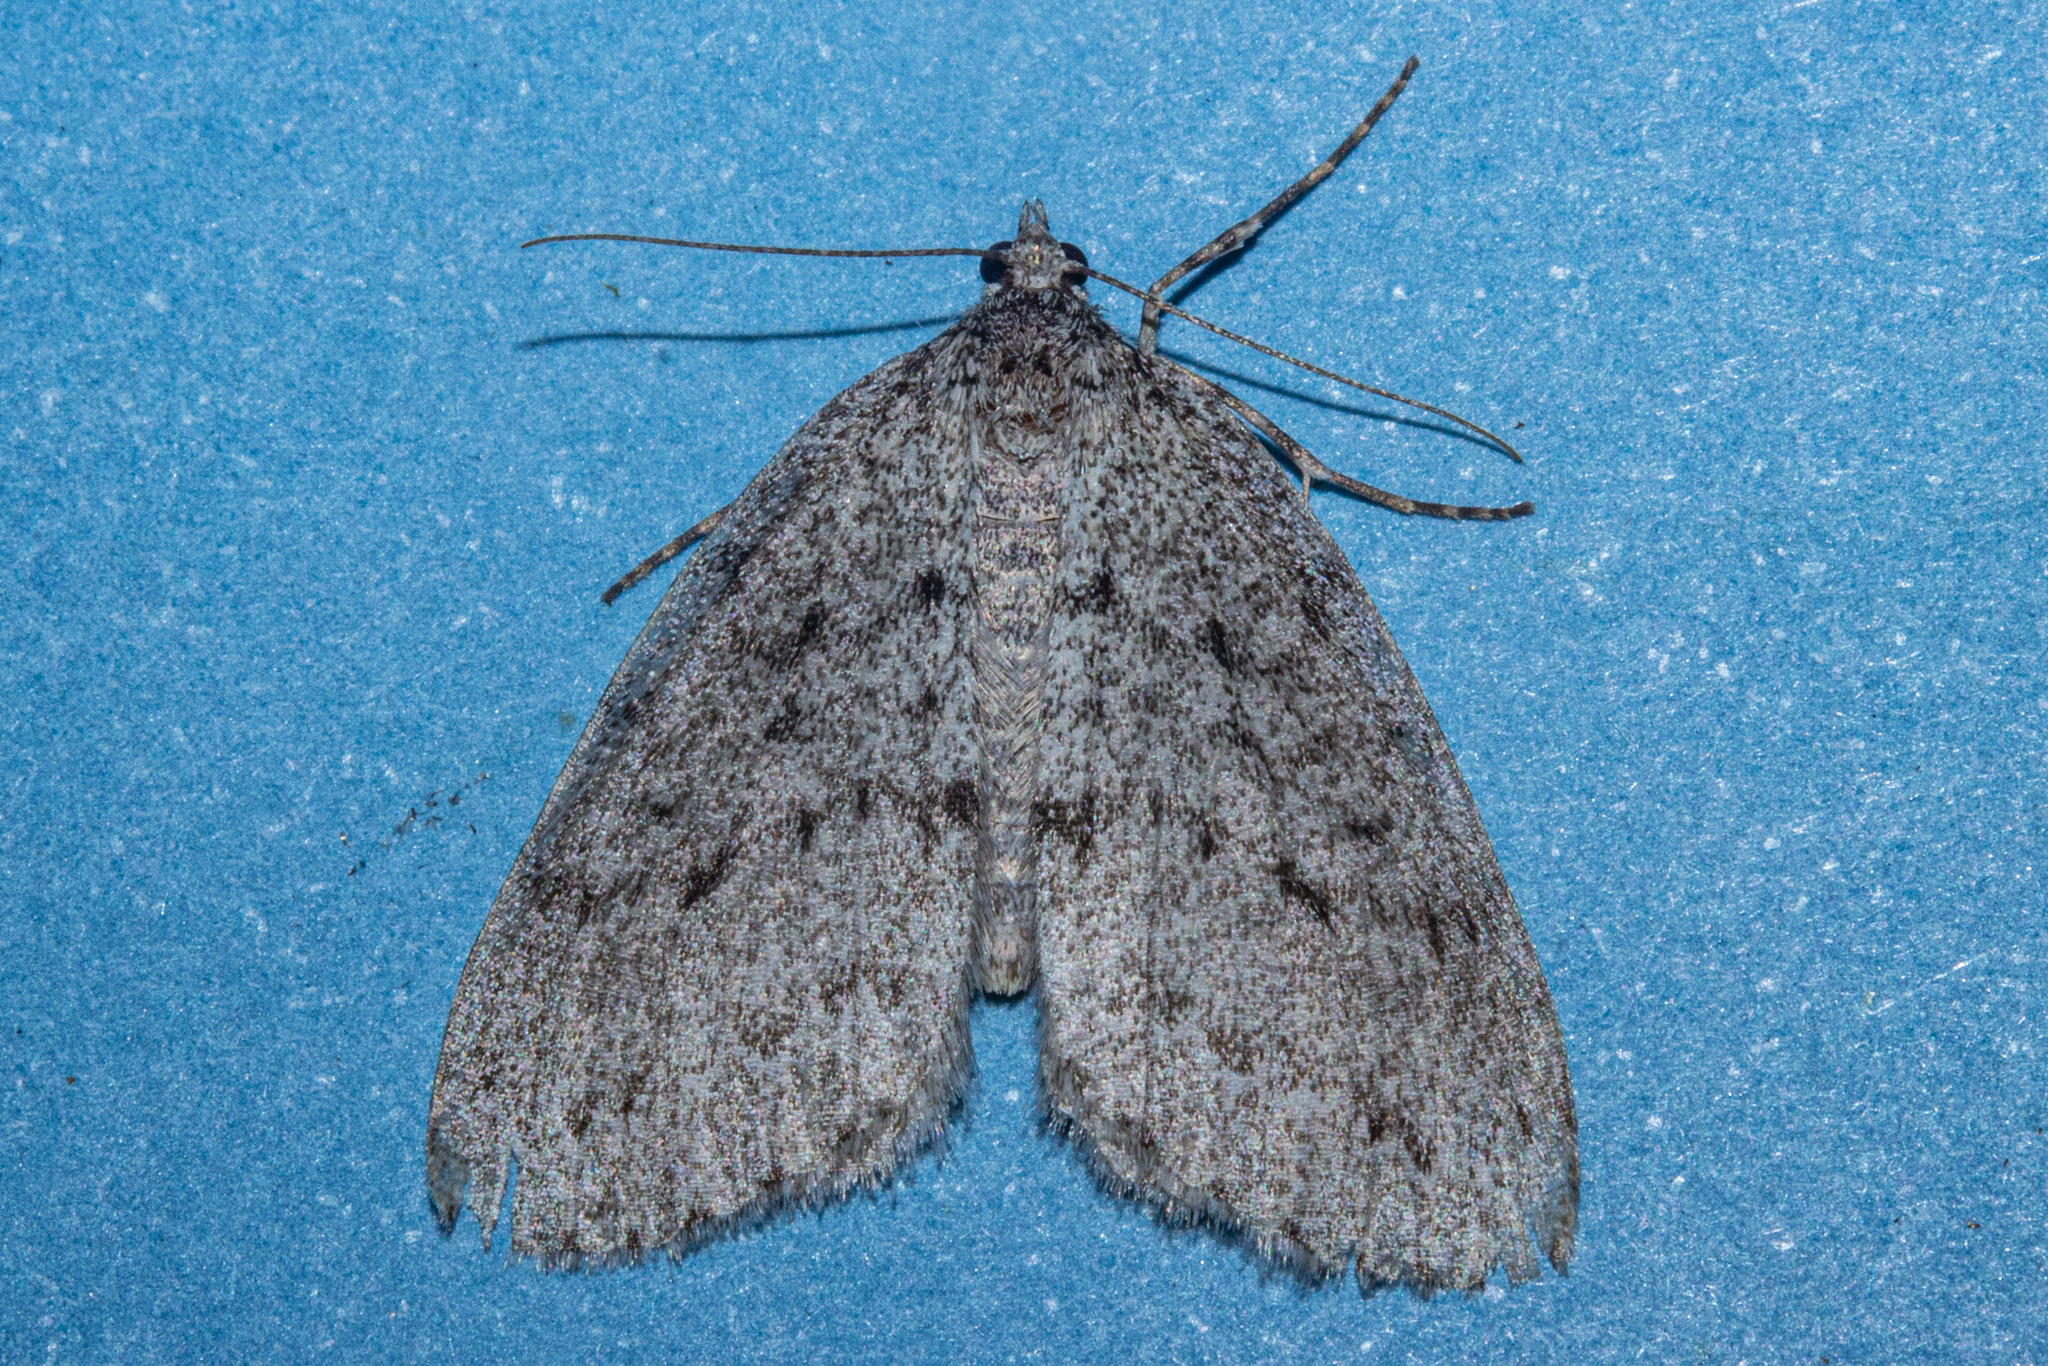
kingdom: Animalia
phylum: Arthropoda
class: Insecta
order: Lepidoptera
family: Geometridae
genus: Pseudocoremia
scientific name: Pseudocoremia fenerata
